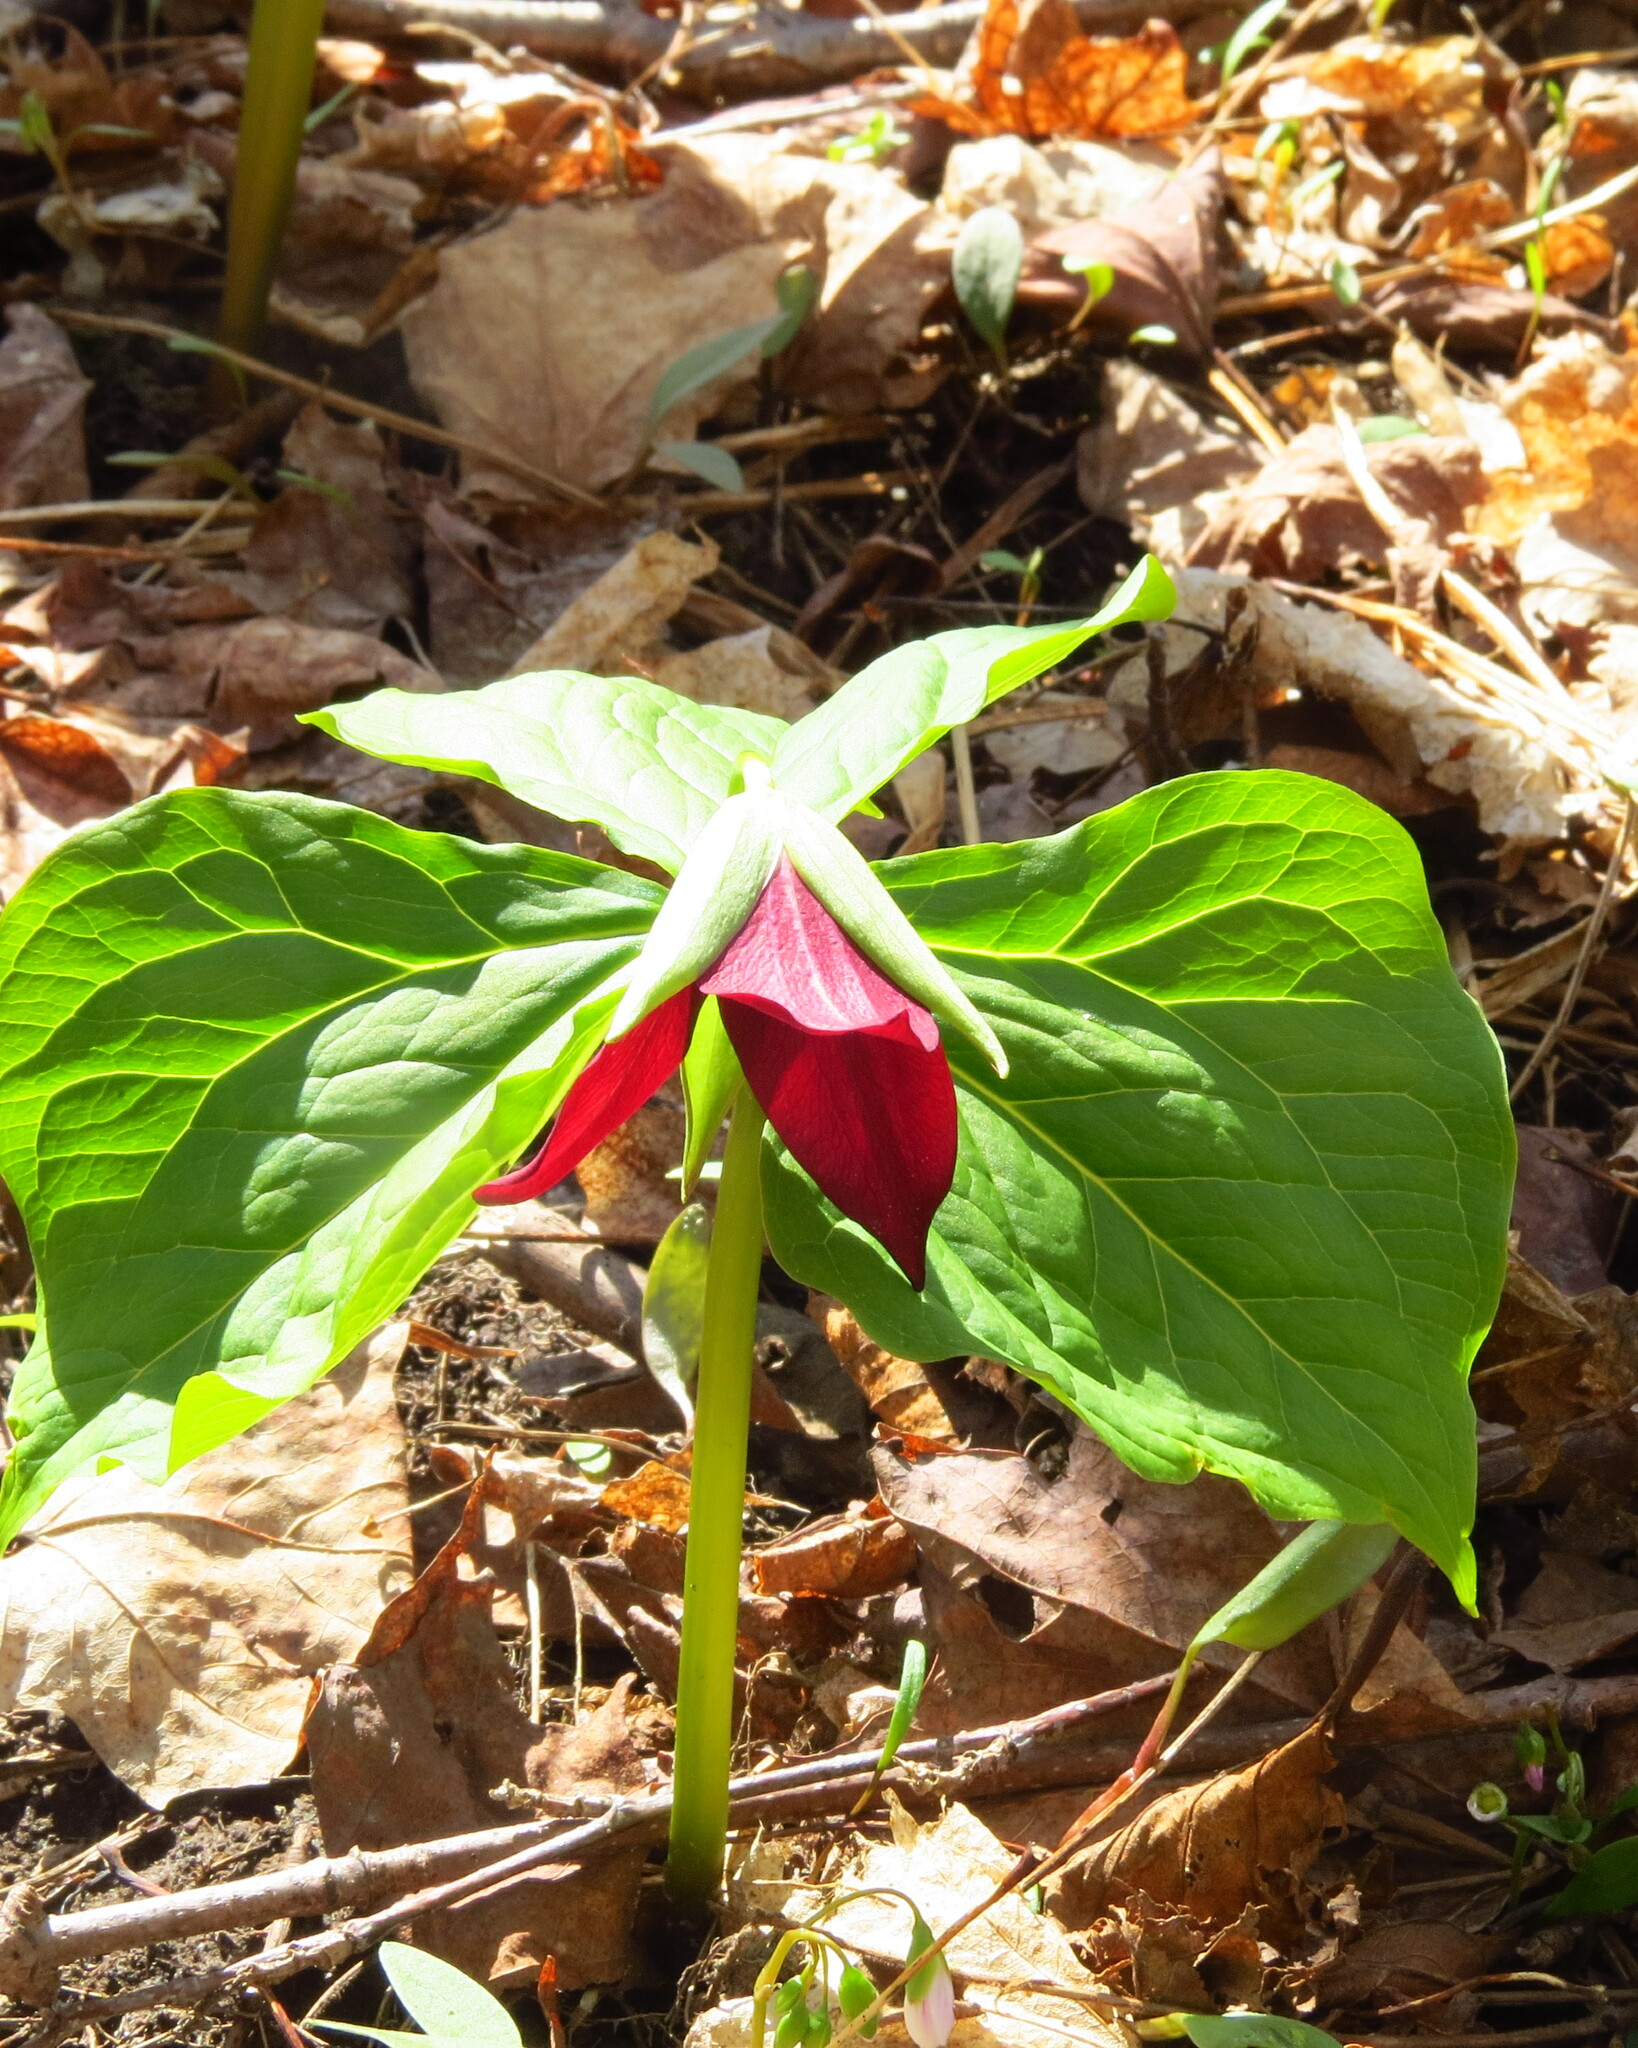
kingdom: Plantae
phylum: Tracheophyta
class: Liliopsida
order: Liliales
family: Melanthiaceae
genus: Trillium
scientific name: Trillium erectum
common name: Purple trillium
